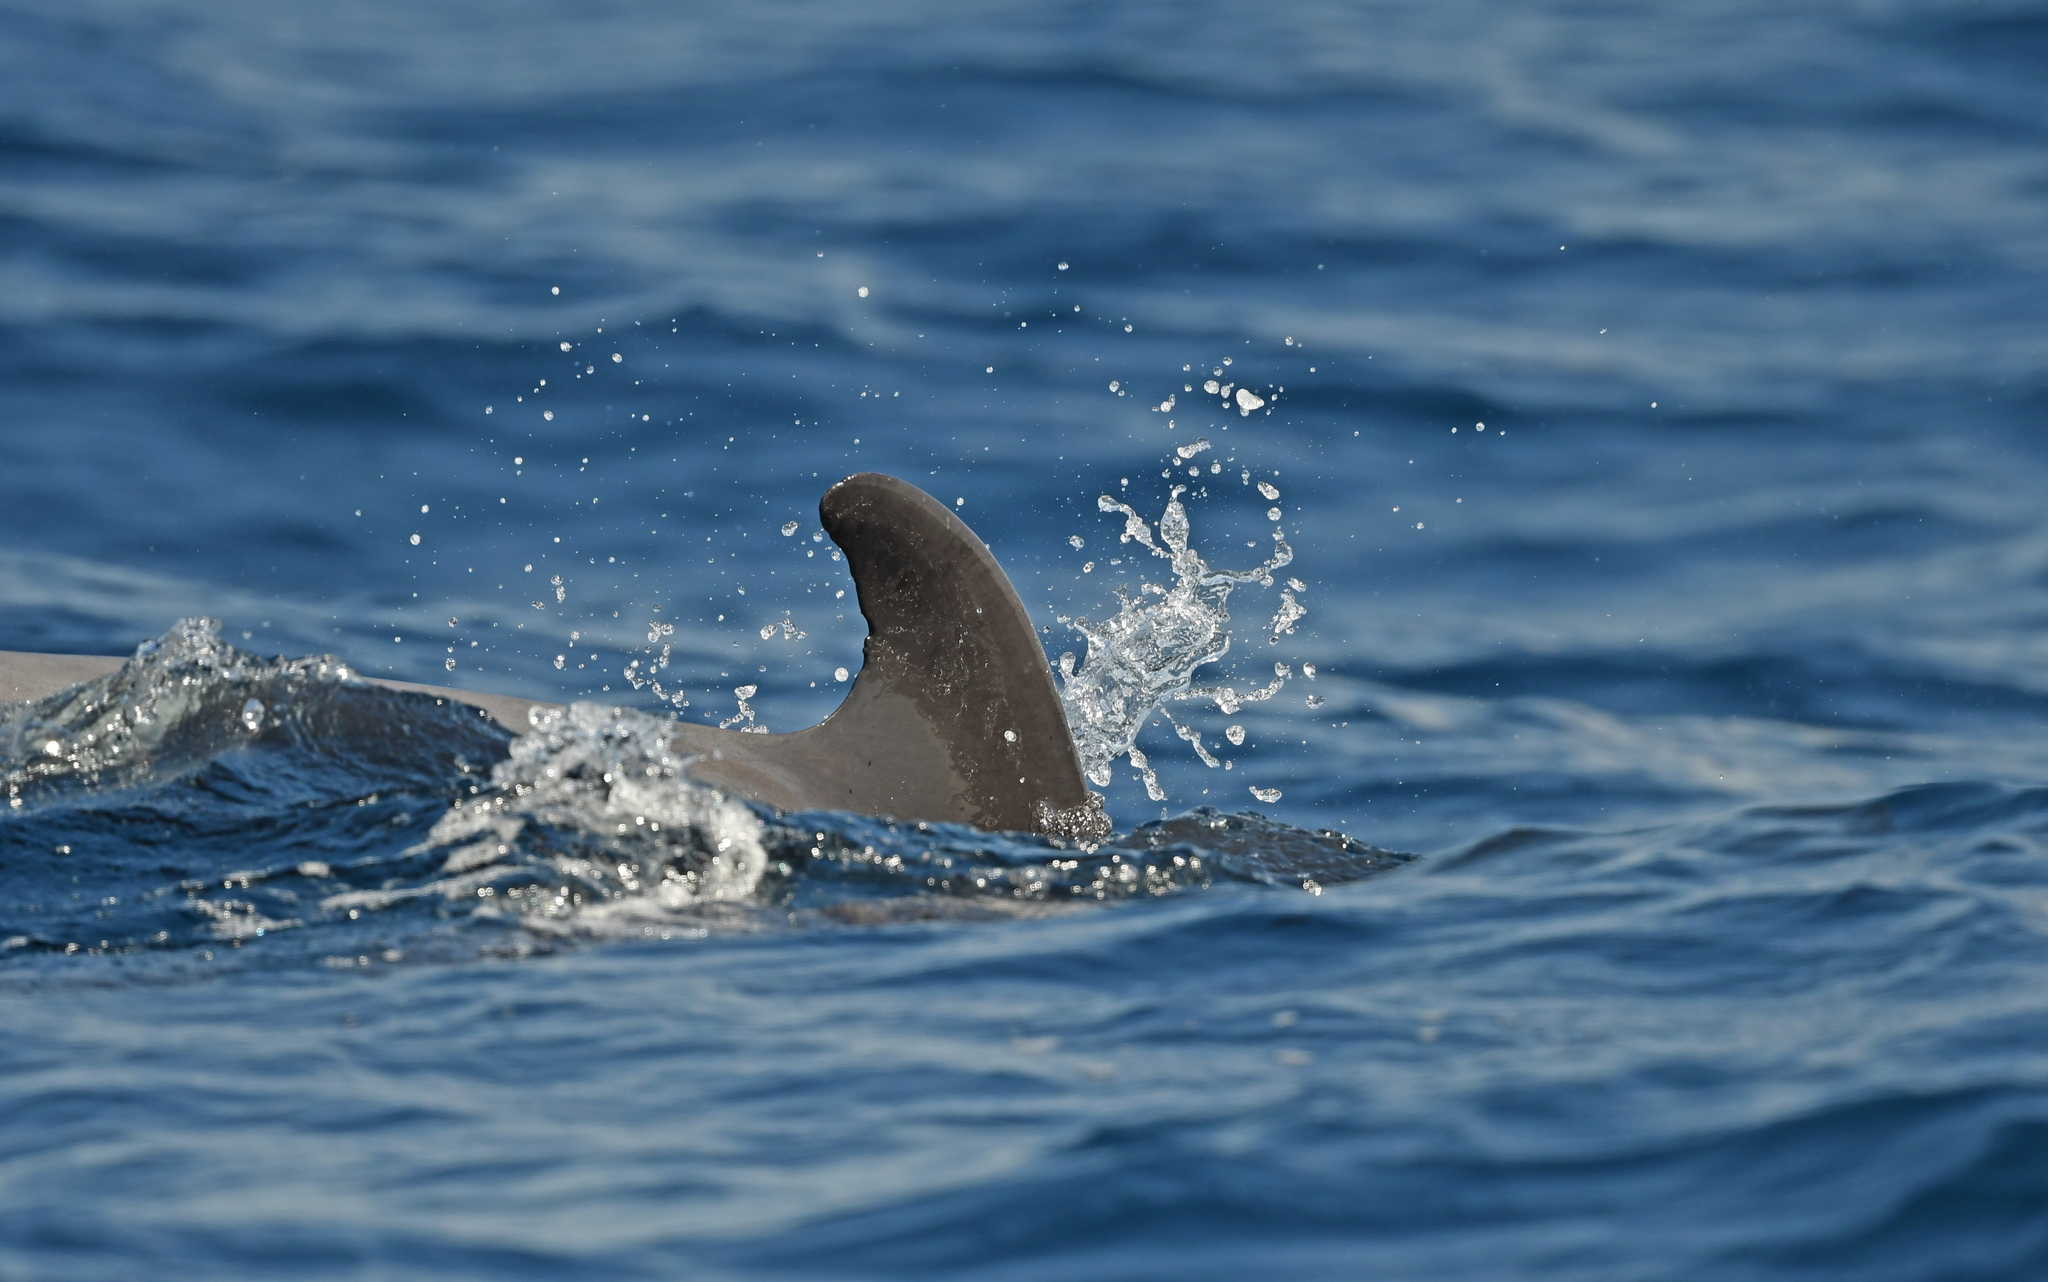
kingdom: Animalia
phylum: Chordata
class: Mammalia
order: Cetacea
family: Delphinidae
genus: Globicephala
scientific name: Globicephala macrorhynchus
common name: Short-finned pilot whale
